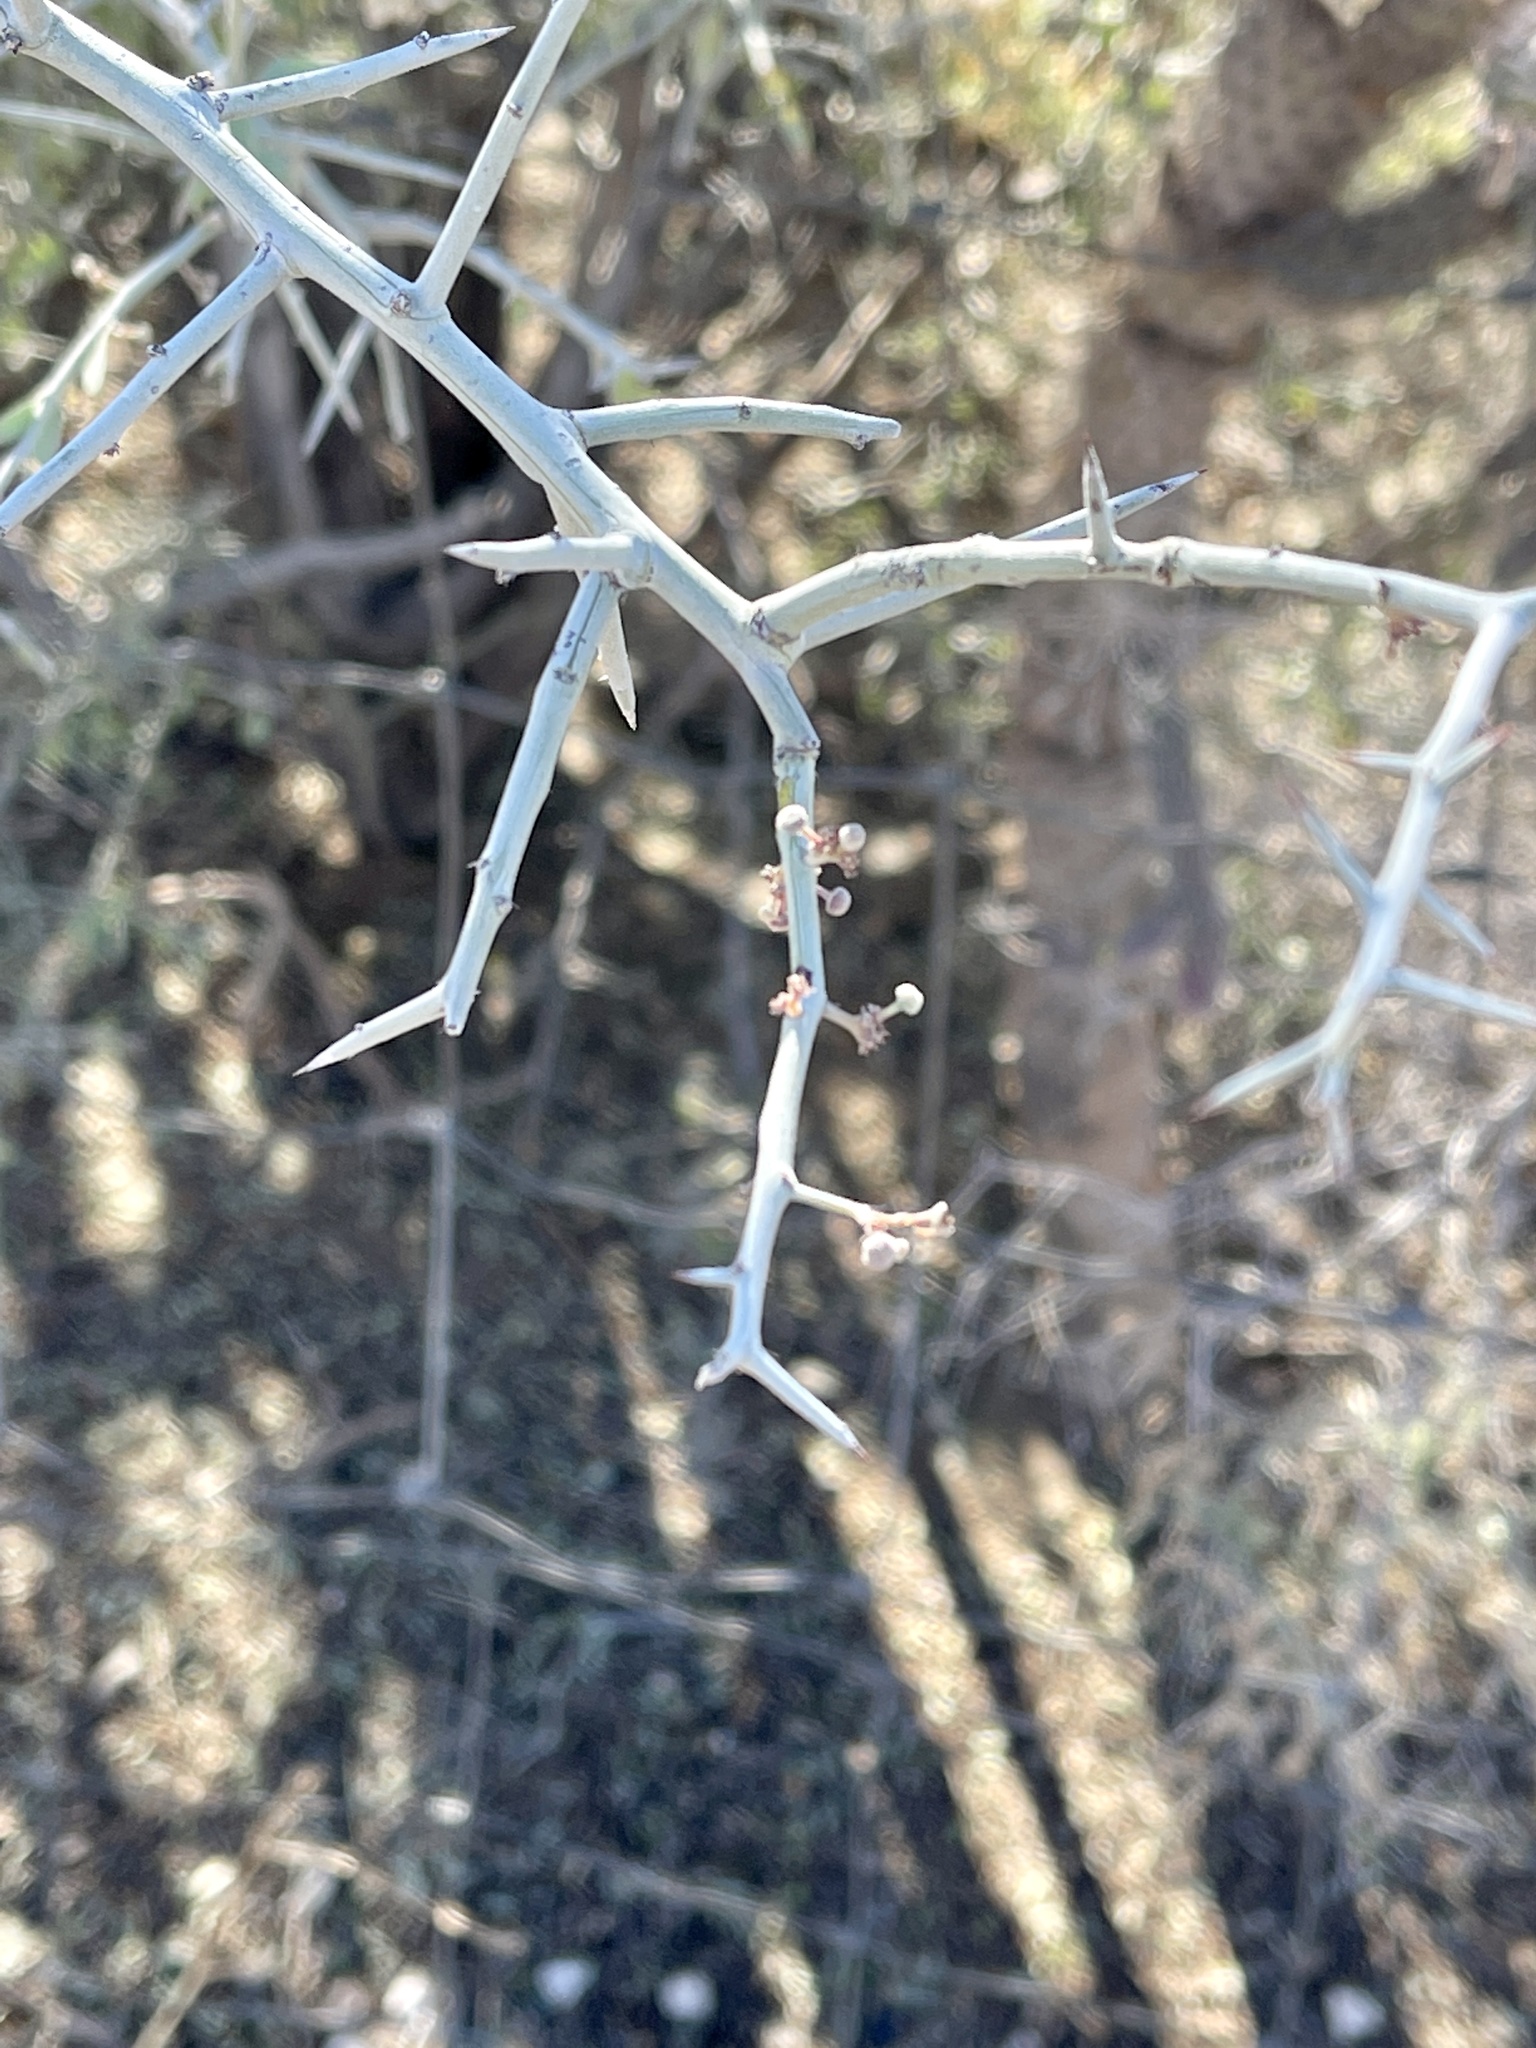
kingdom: Plantae
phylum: Tracheophyta
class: Magnoliopsida
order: Rosales
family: Rhamnaceae
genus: Sarcomphalus
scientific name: Sarcomphalus obtusifolius
